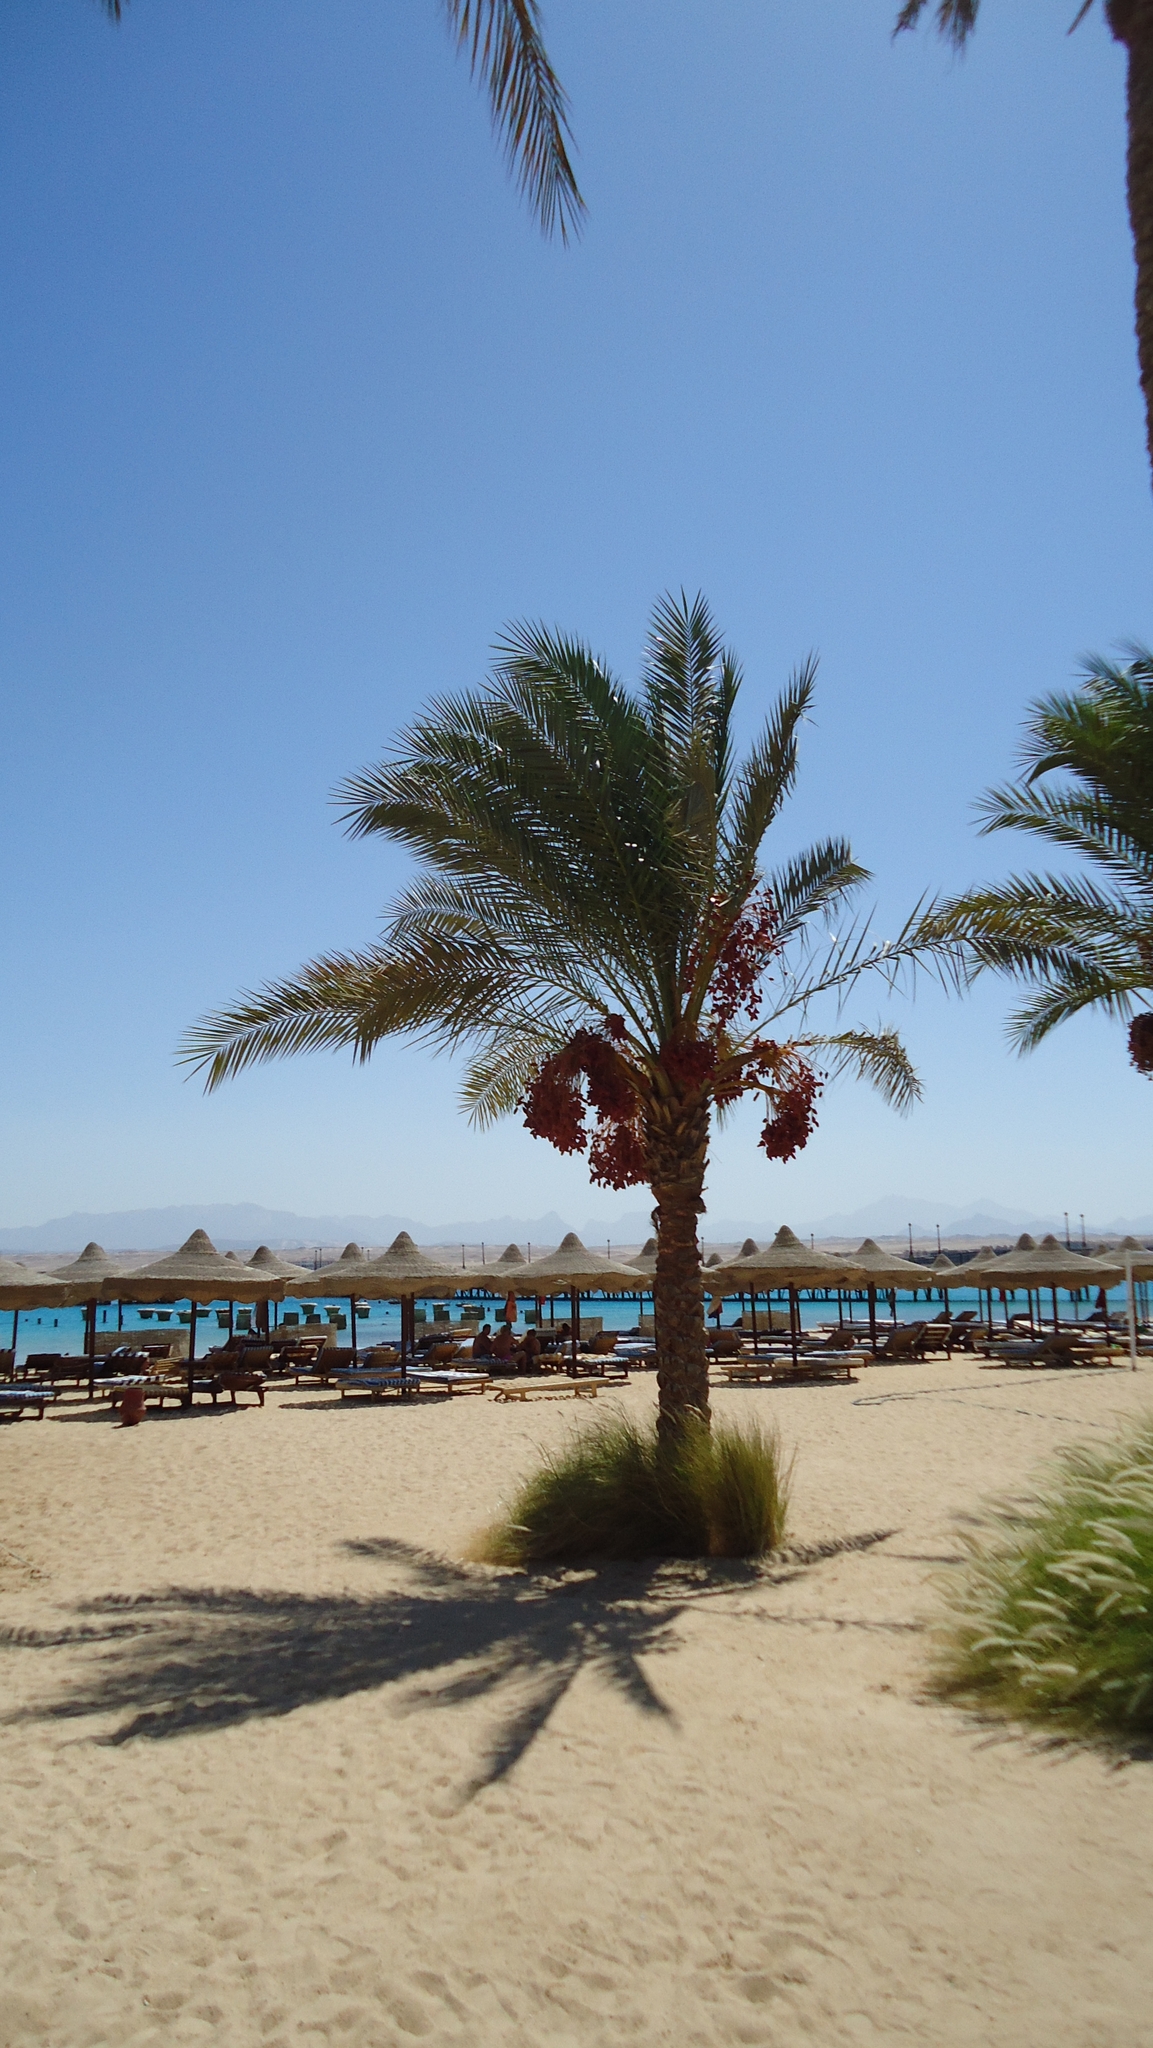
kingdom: Plantae
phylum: Tracheophyta
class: Liliopsida
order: Arecales
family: Arecaceae
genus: Phoenix
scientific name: Phoenix dactylifera
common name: Date palm
